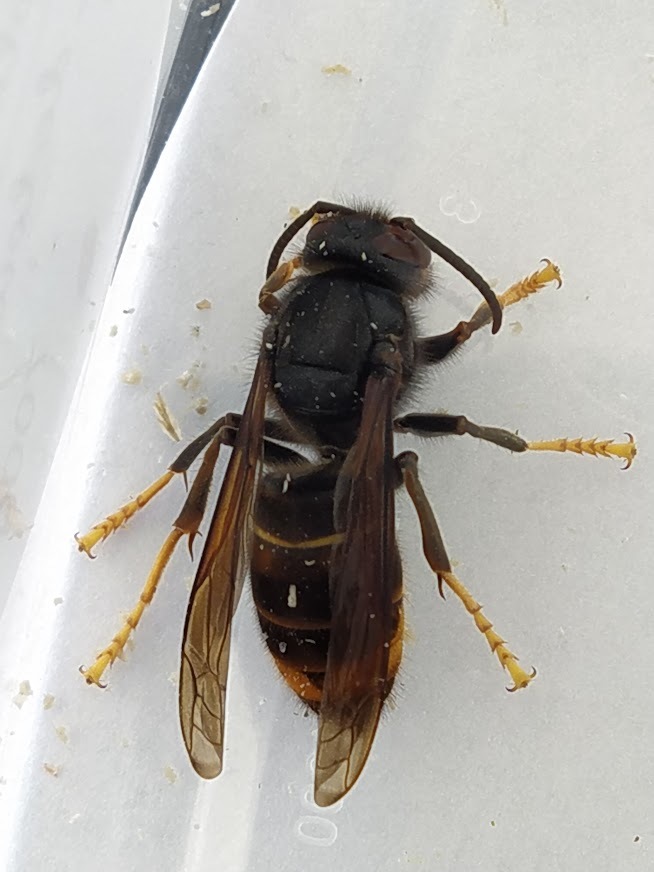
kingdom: Animalia
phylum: Arthropoda
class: Insecta
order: Hymenoptera
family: Vespidae
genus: Vespa
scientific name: Vespa velutina
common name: Asian hornet
